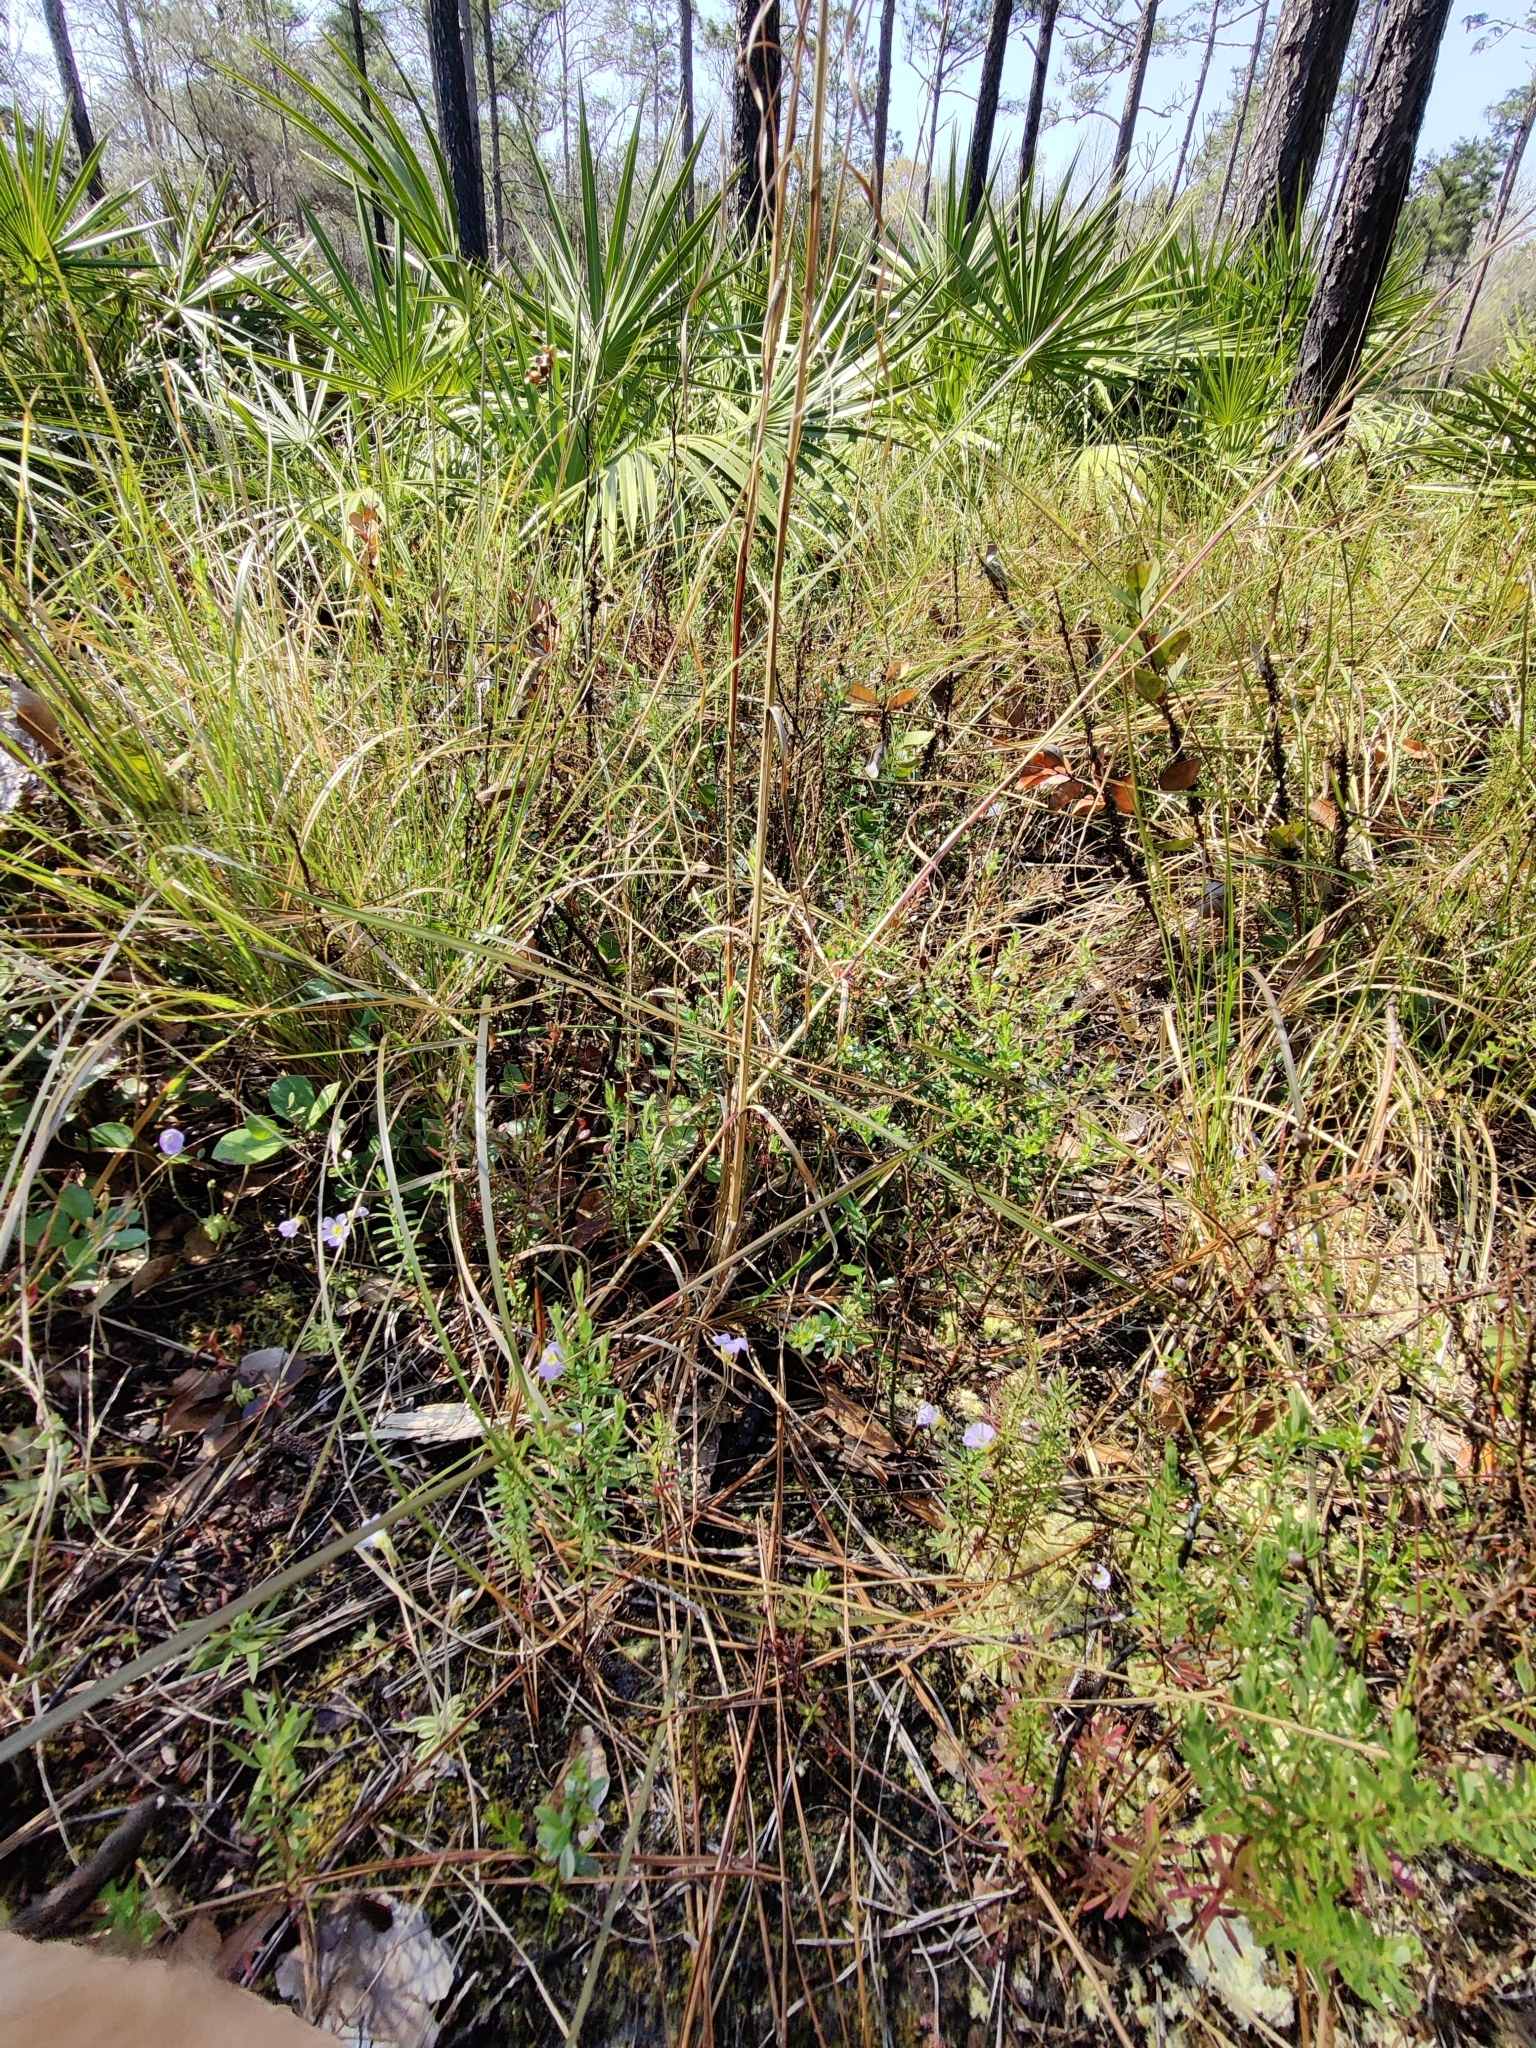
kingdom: Plantae
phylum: Tracheophyta
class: Magnoliopsida
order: Lamiales
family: Lentibulariaceae
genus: Pinguicula
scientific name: Pinguicula pumila
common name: Small butterwort
